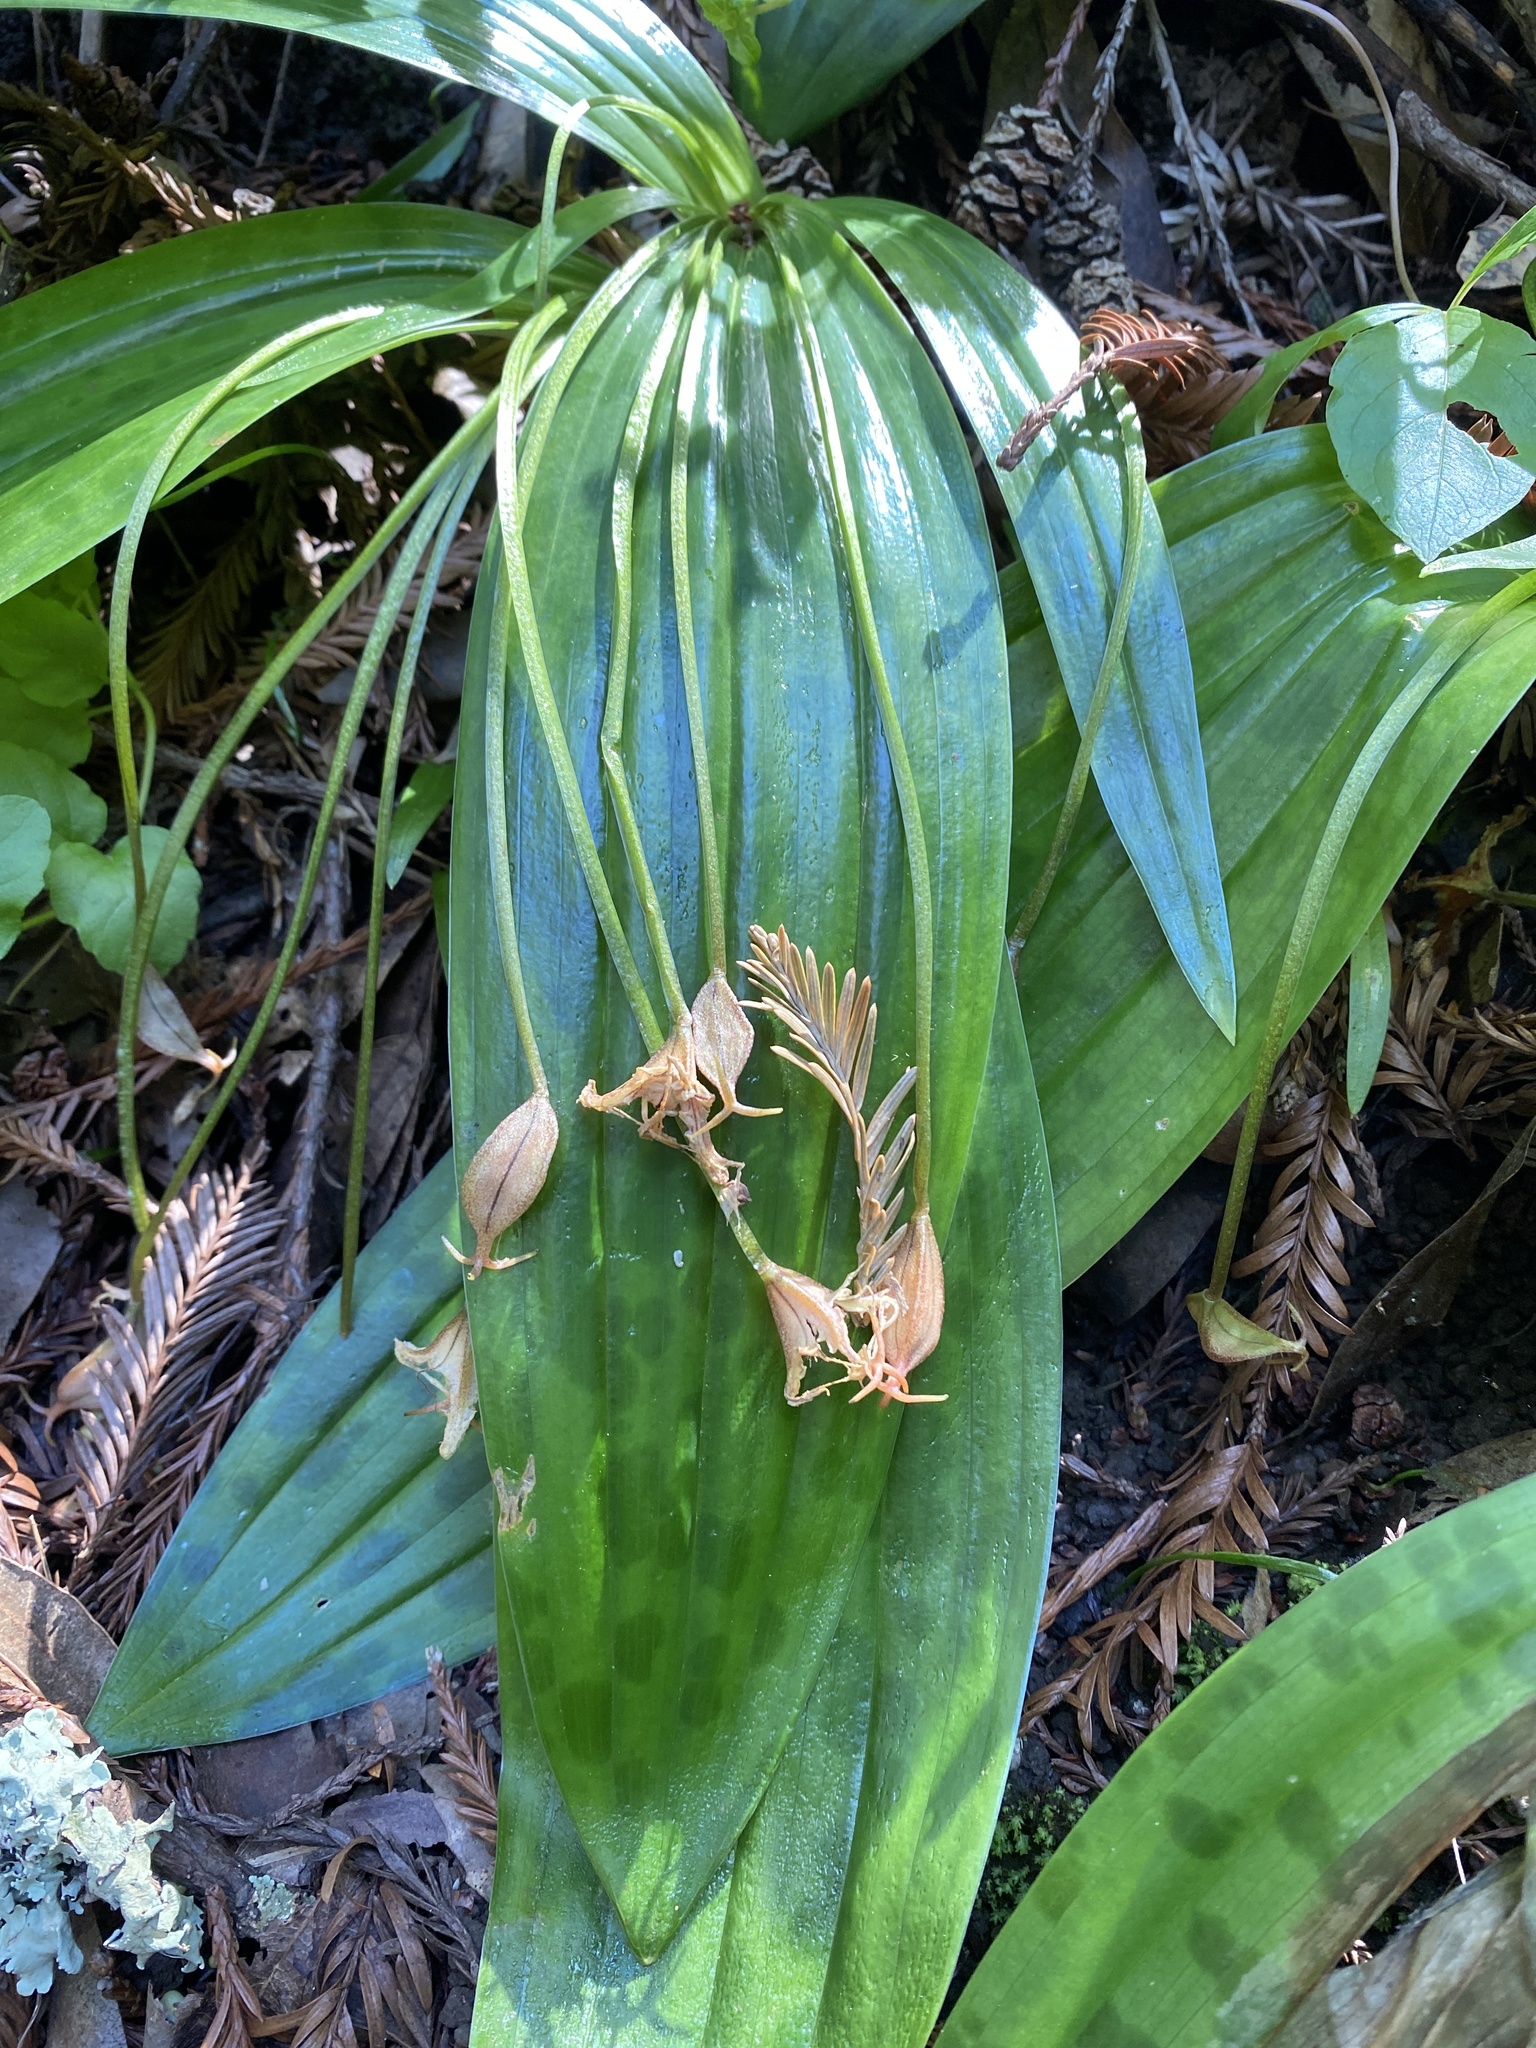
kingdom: Plantae
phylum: Tracheophyta
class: Liliopsida
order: Liliales
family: Liliaceae
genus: Scoliopus
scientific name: Scoliopus bigelovii
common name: Foetid adder's-tongue
